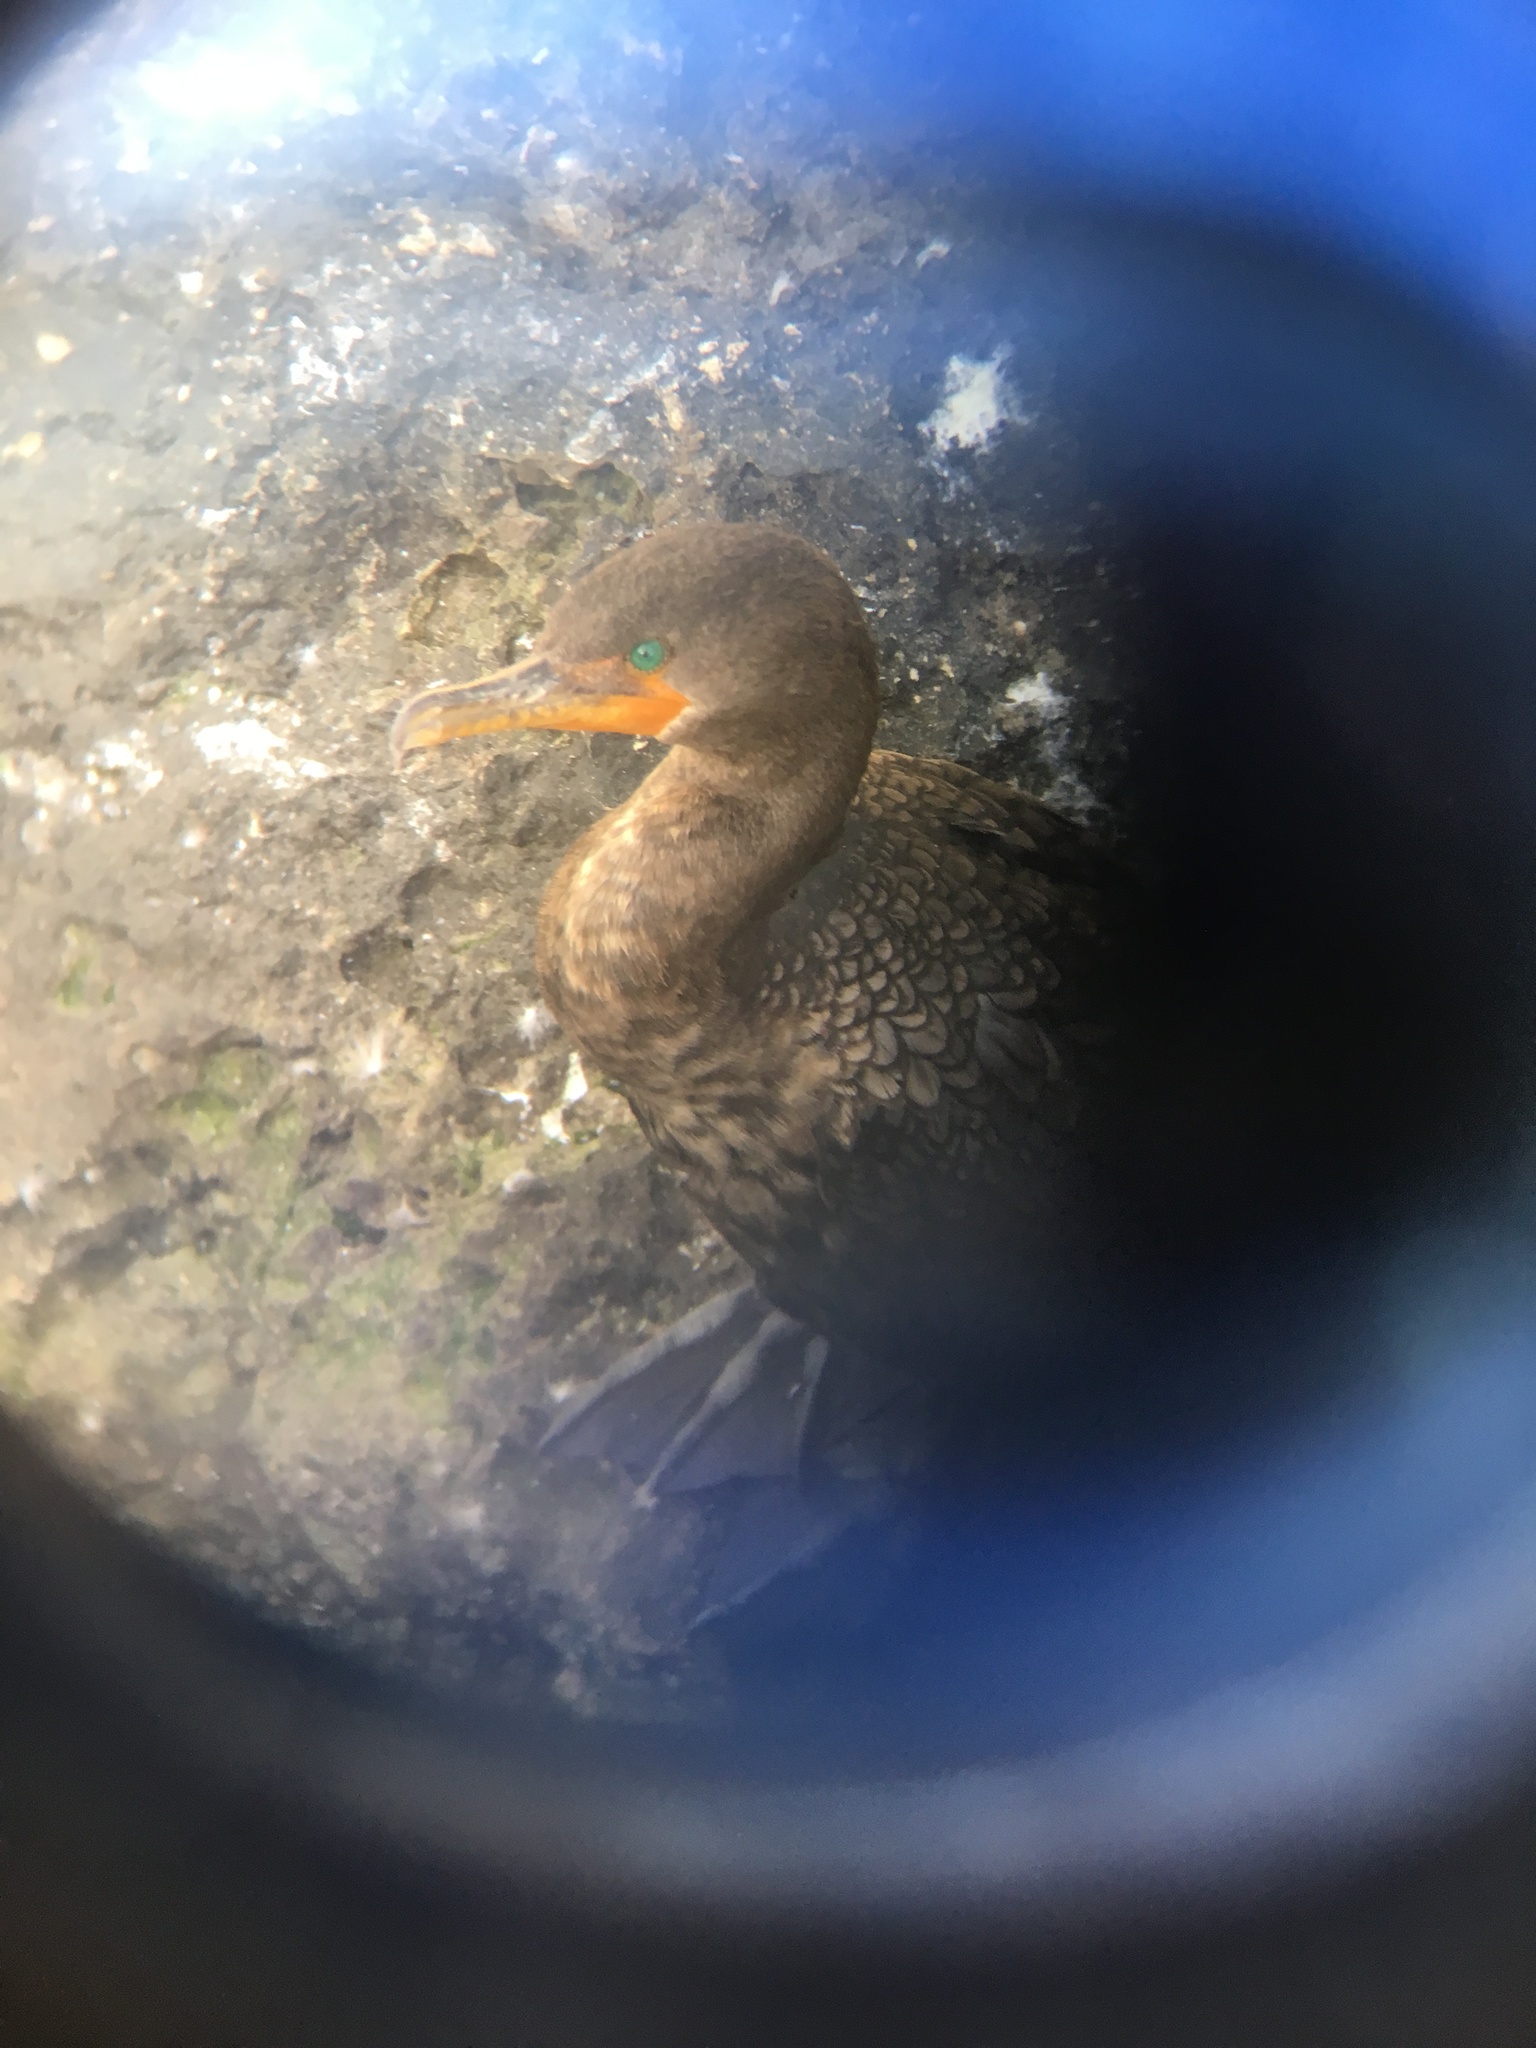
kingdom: Animalia
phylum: Chordata
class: Aves
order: Suliformes
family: Phalacrocoracidae
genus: Phalacrocorax
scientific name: Phalacrocorax auritus
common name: Double-crested cormorant
